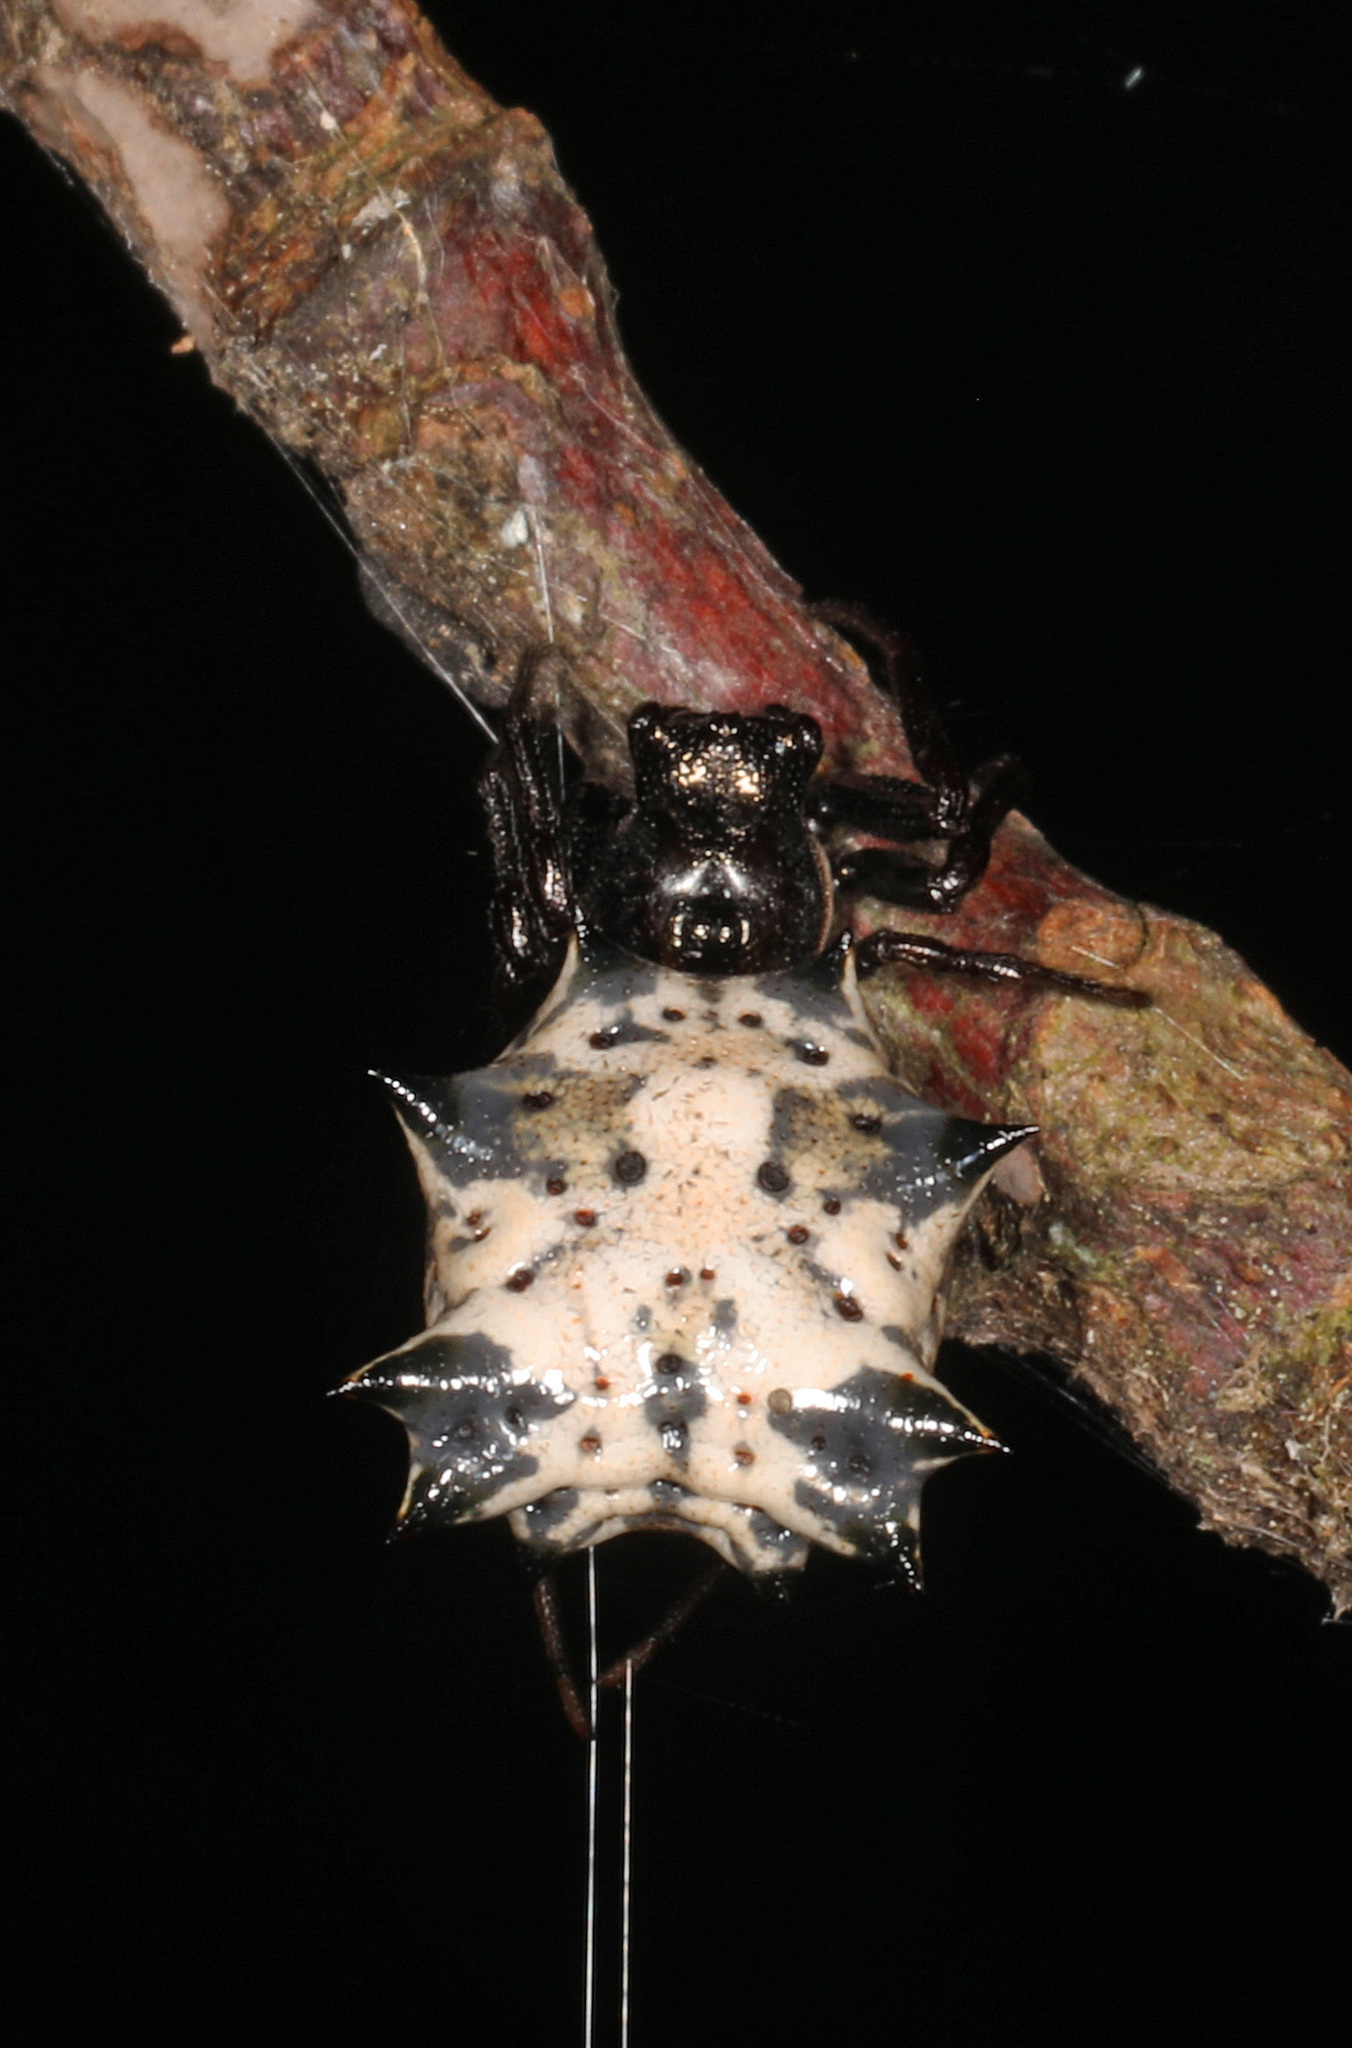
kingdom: Animalia
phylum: Arthropoda
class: Arachnida
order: Araneae
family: Araneidae
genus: Micrathena
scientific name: Micrathena gracilis
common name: Orb weavers
